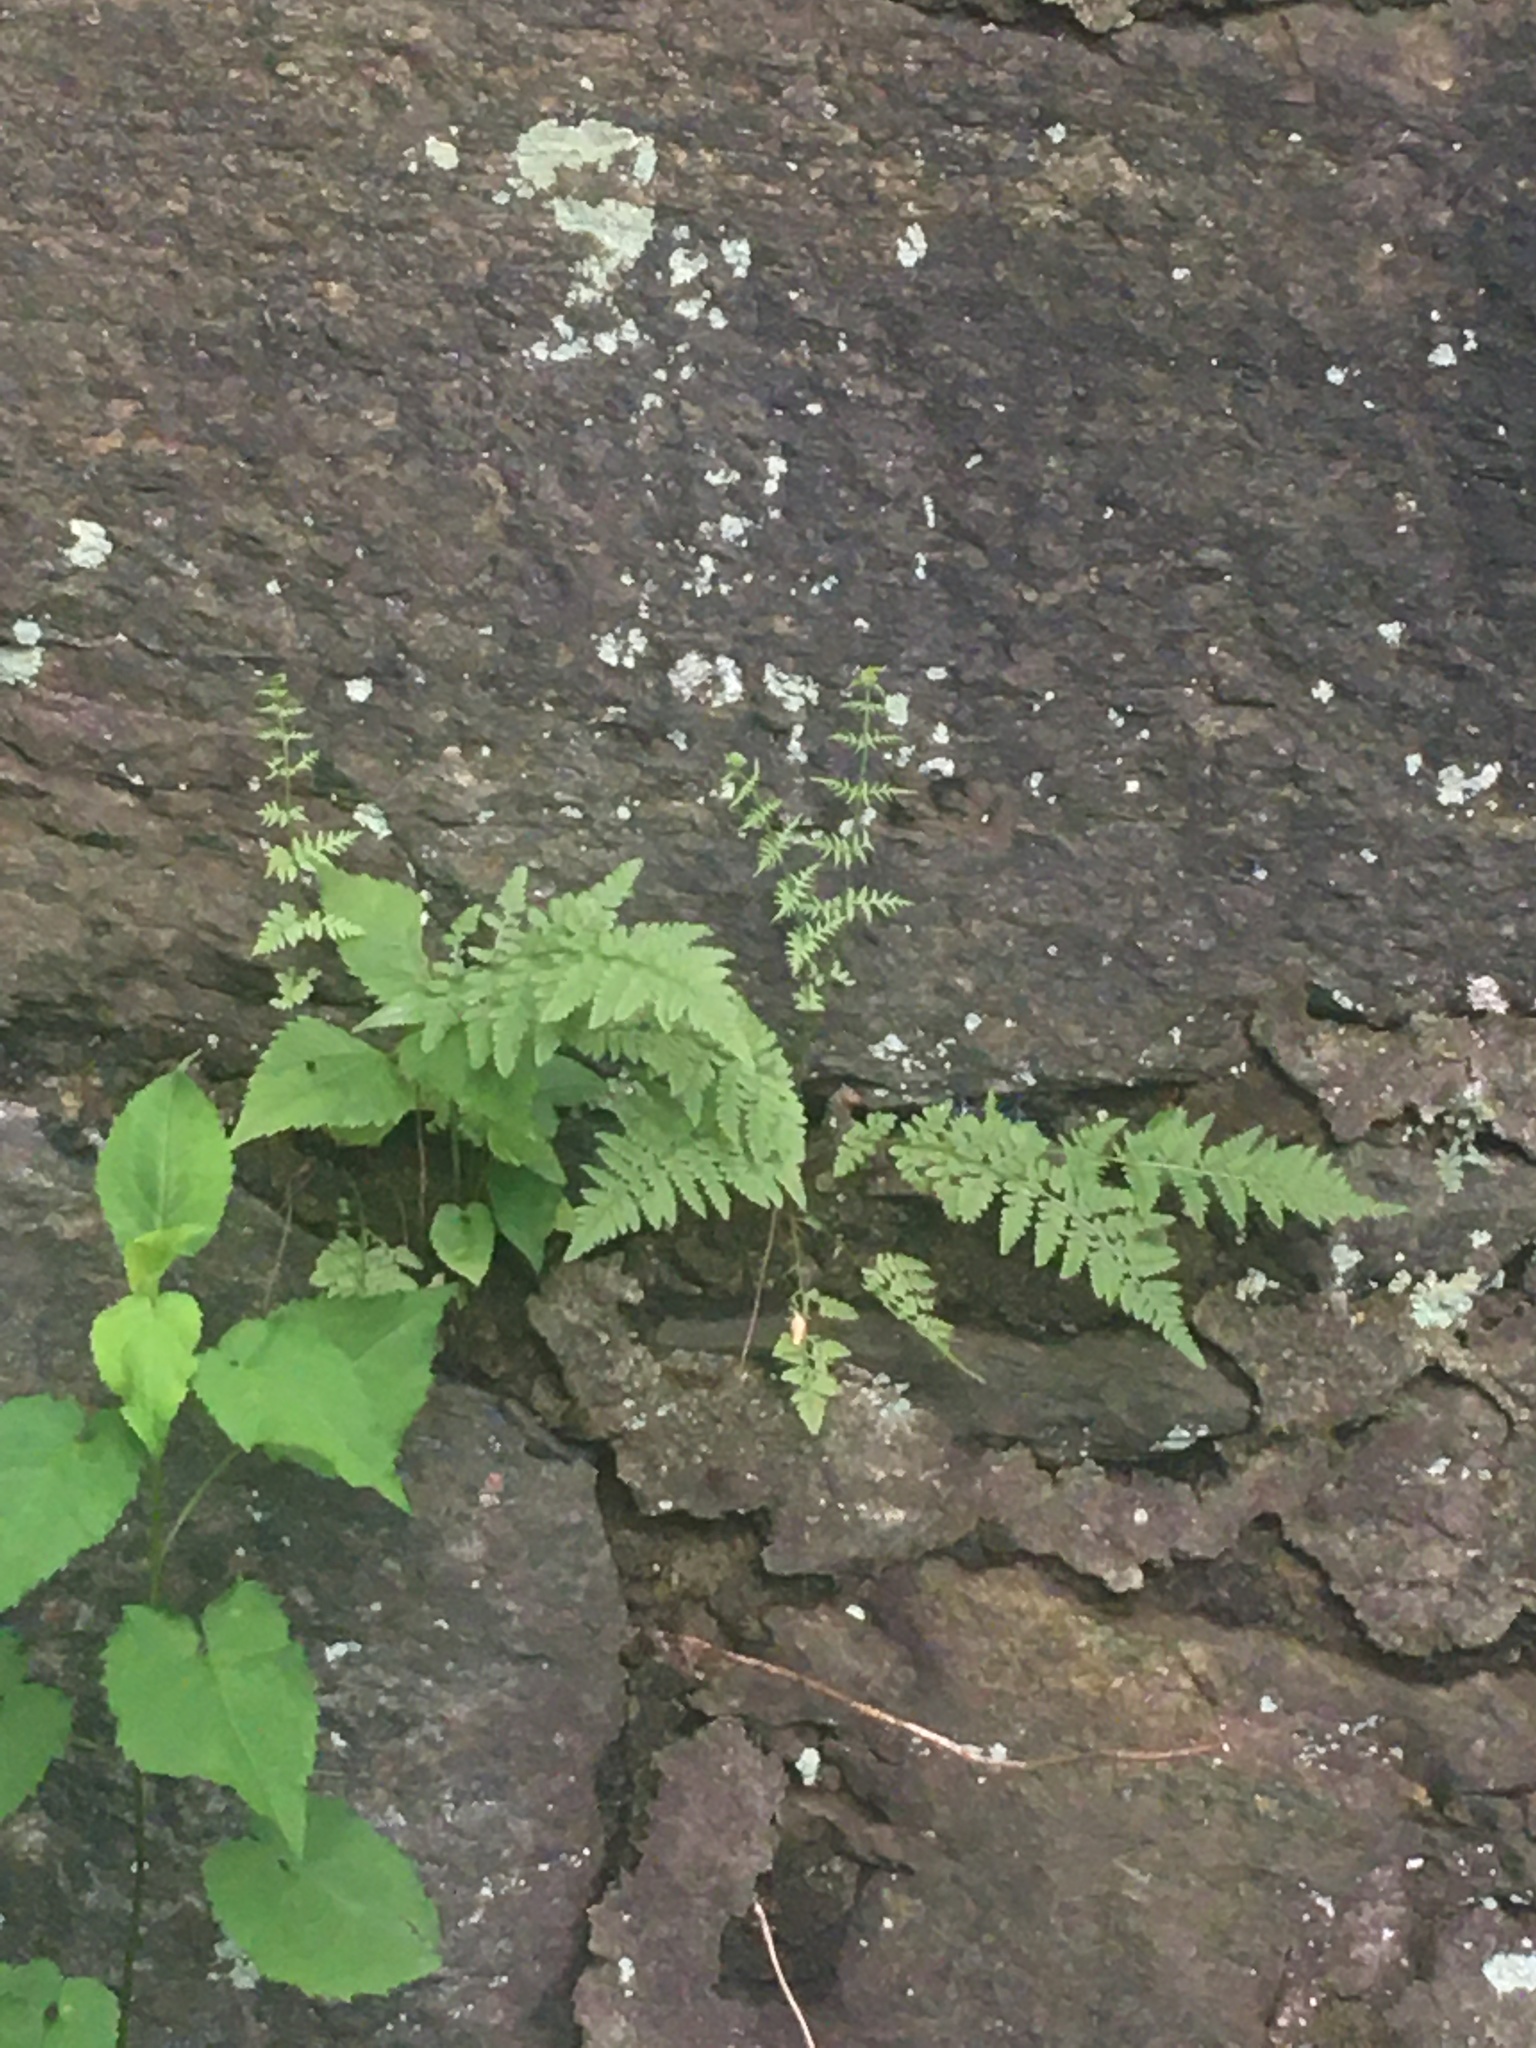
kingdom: Plantae
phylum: Tracheophyta
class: Polypodiopsida
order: Polypodiales
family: Woodsiaceae
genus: Physematium
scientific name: Physematium obtusum
